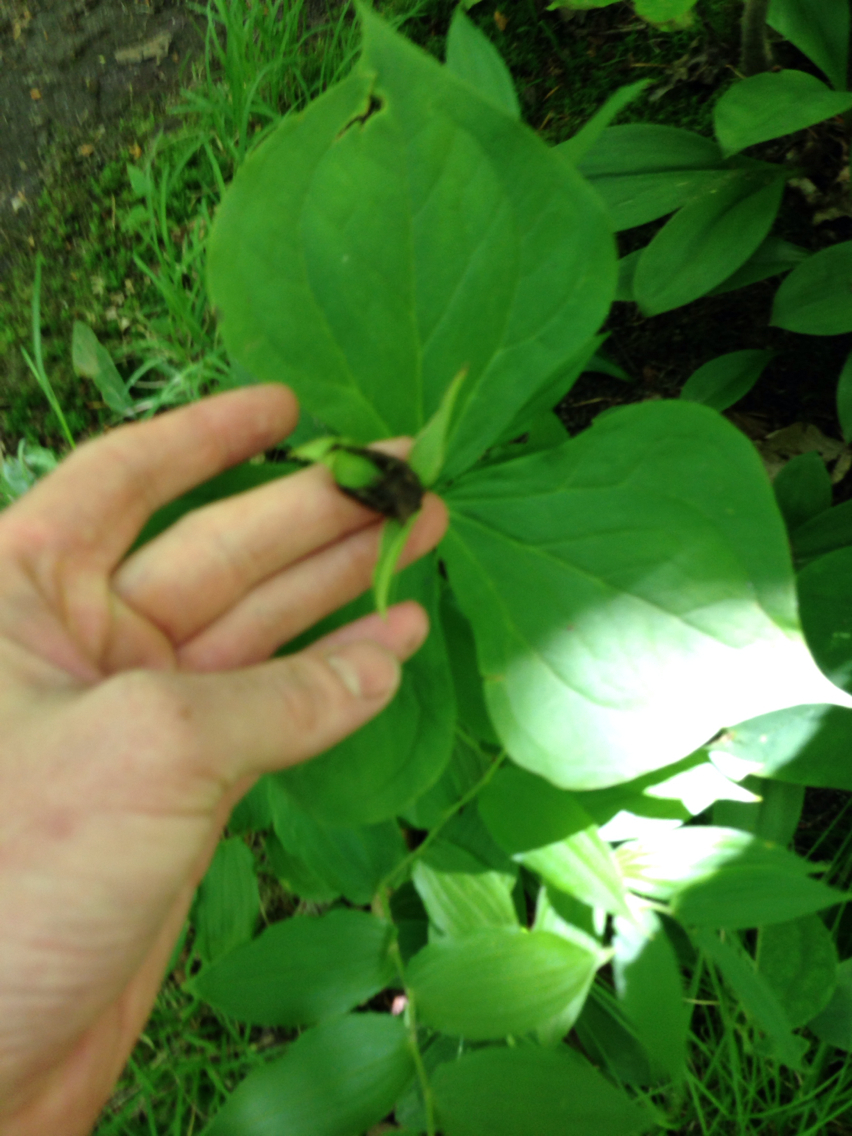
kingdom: Plantae
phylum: Tracheophyta
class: Liliopsida
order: Liliales
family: Melanthiaceae
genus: Trillium
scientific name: Trillium erectum
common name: Purple trillium
